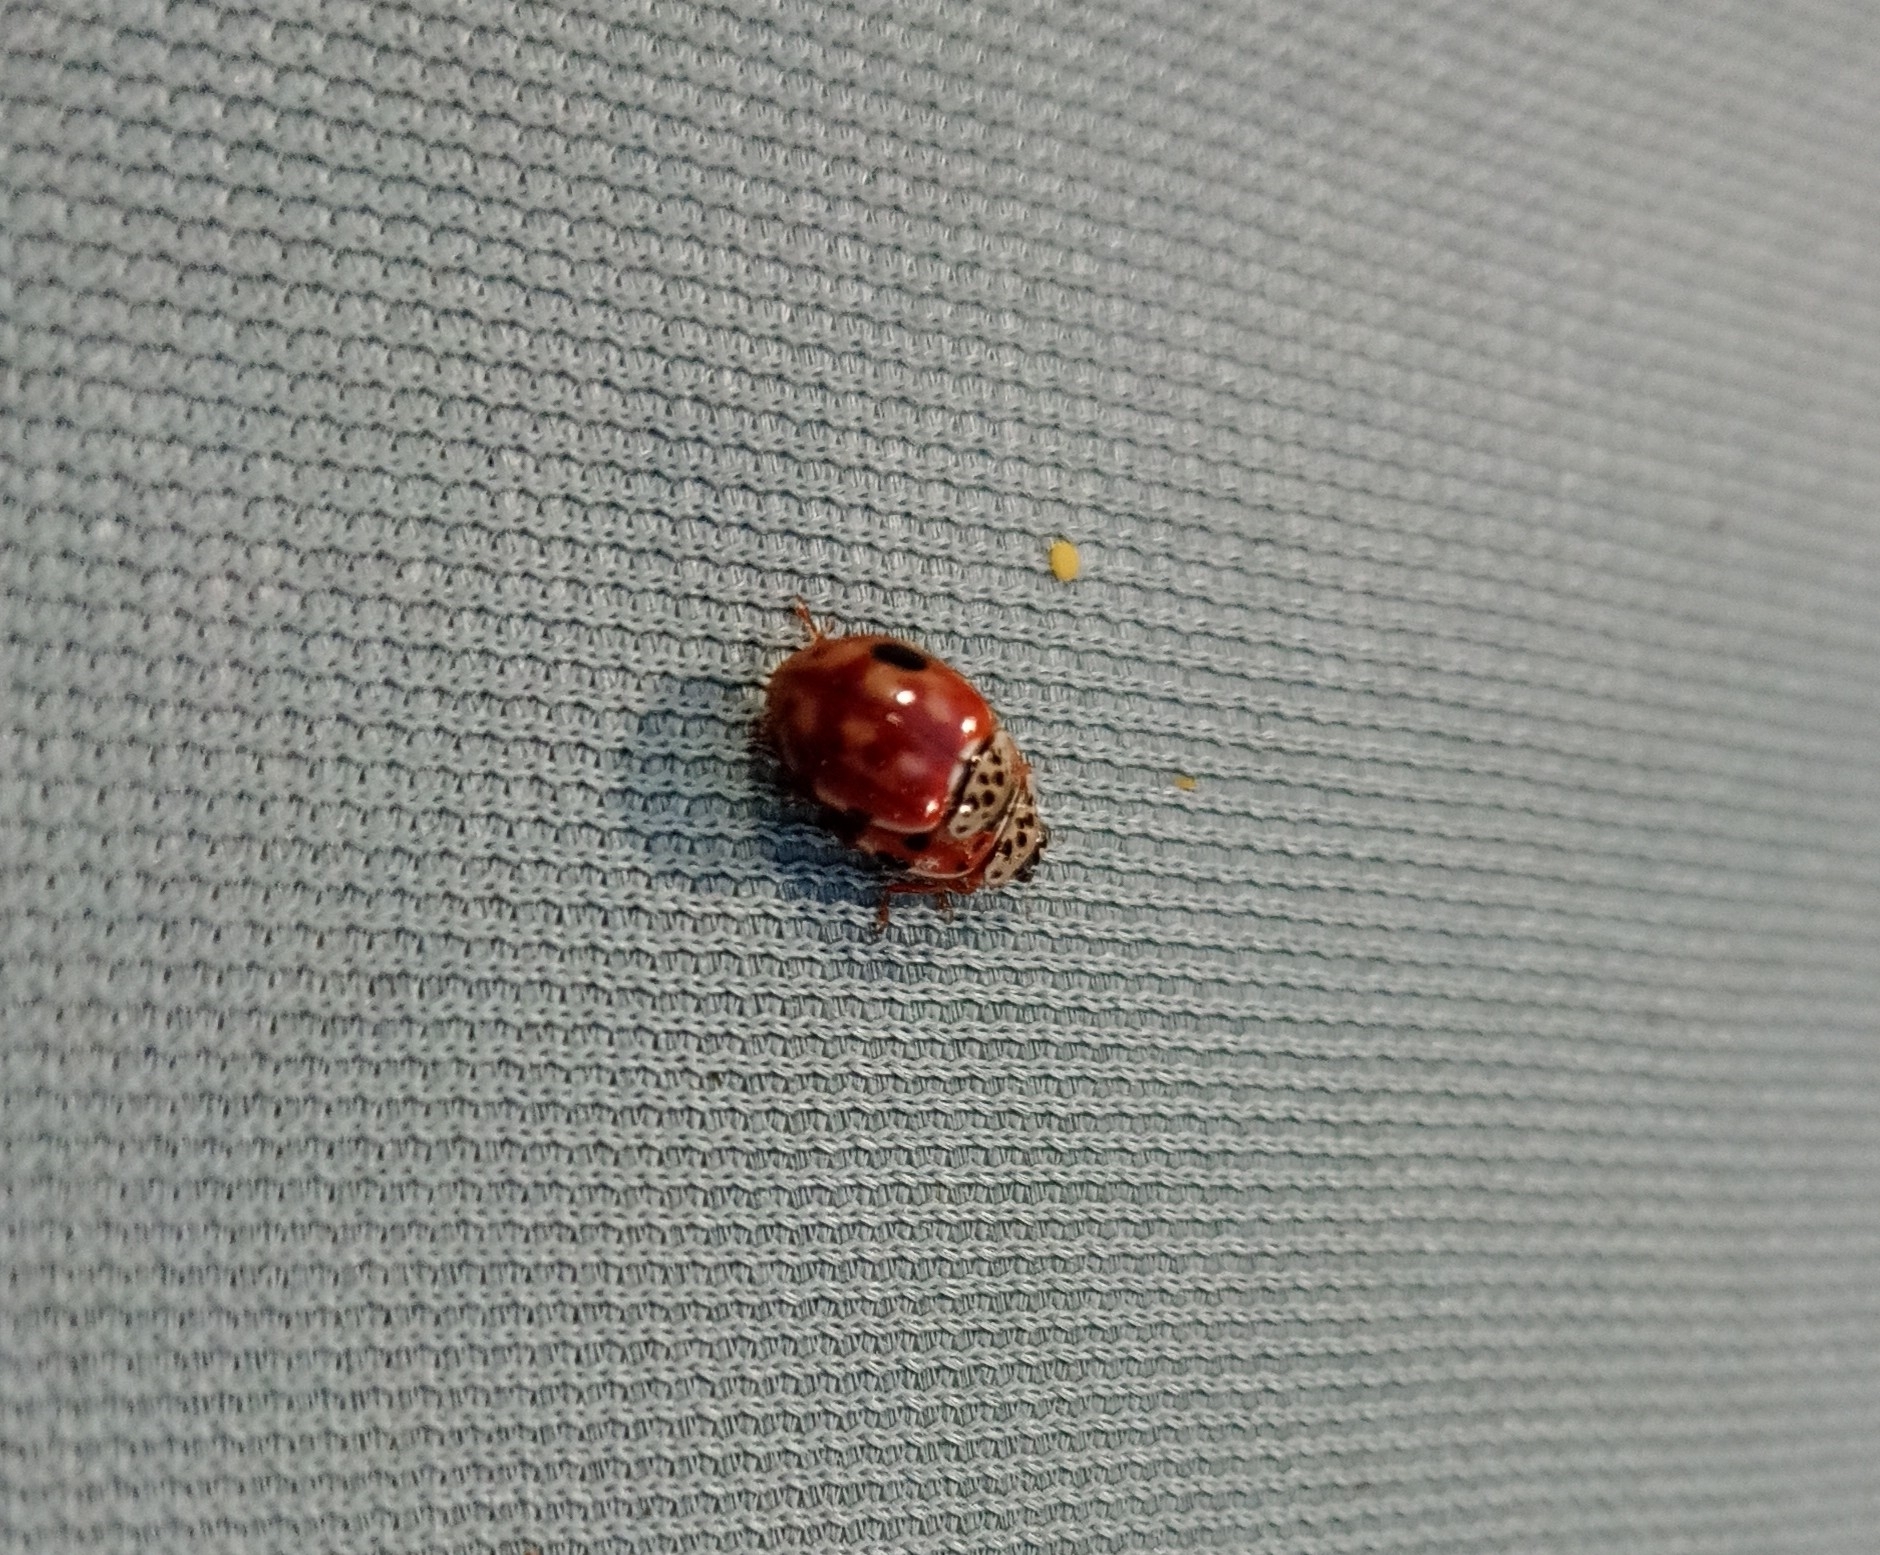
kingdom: Animalia
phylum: Arthropoda
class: Insecta
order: Coleoptera
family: Coccinellidae
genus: Harmonia
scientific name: Harmonia quadripunctata
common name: Cream-streaked ladybird
